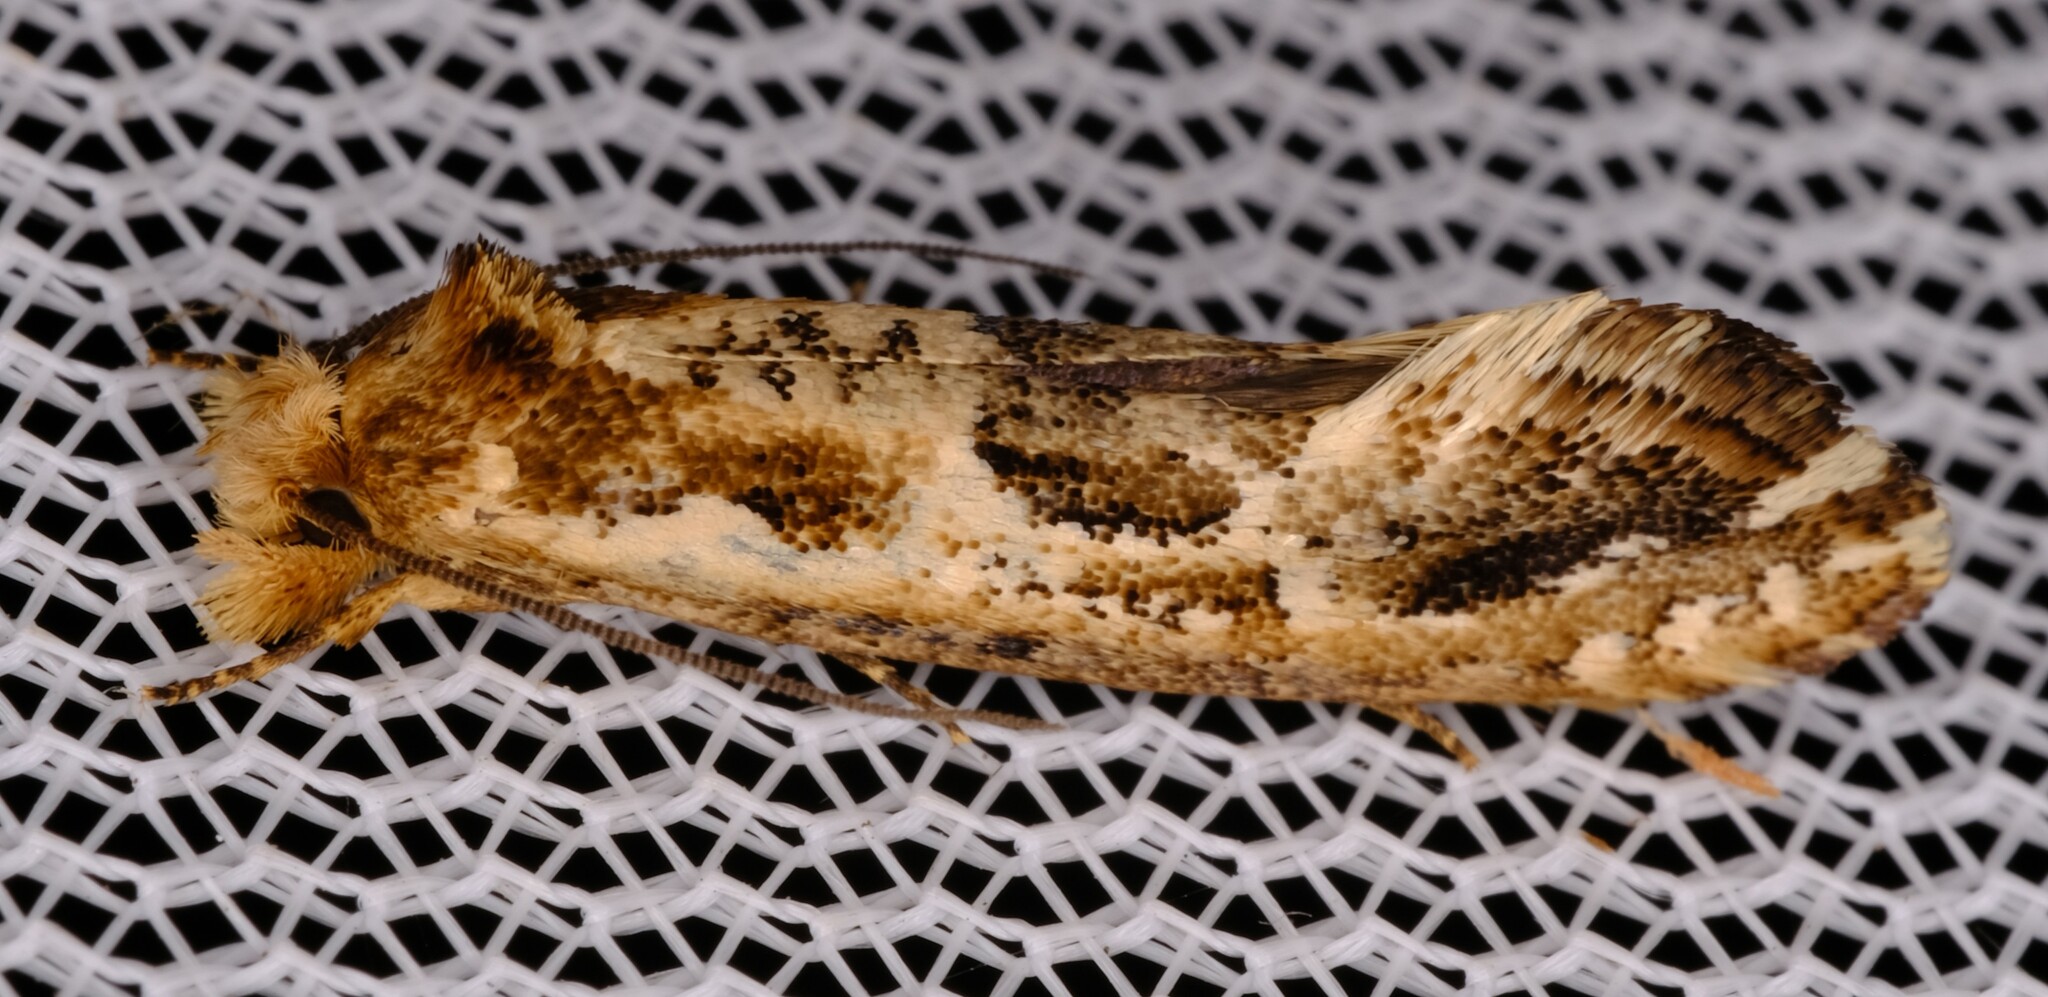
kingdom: Animalia
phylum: Arthropoda
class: Insecta
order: Lepidoptera
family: Tineidae
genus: Moerarchis
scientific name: Moerarchis inconcisella
